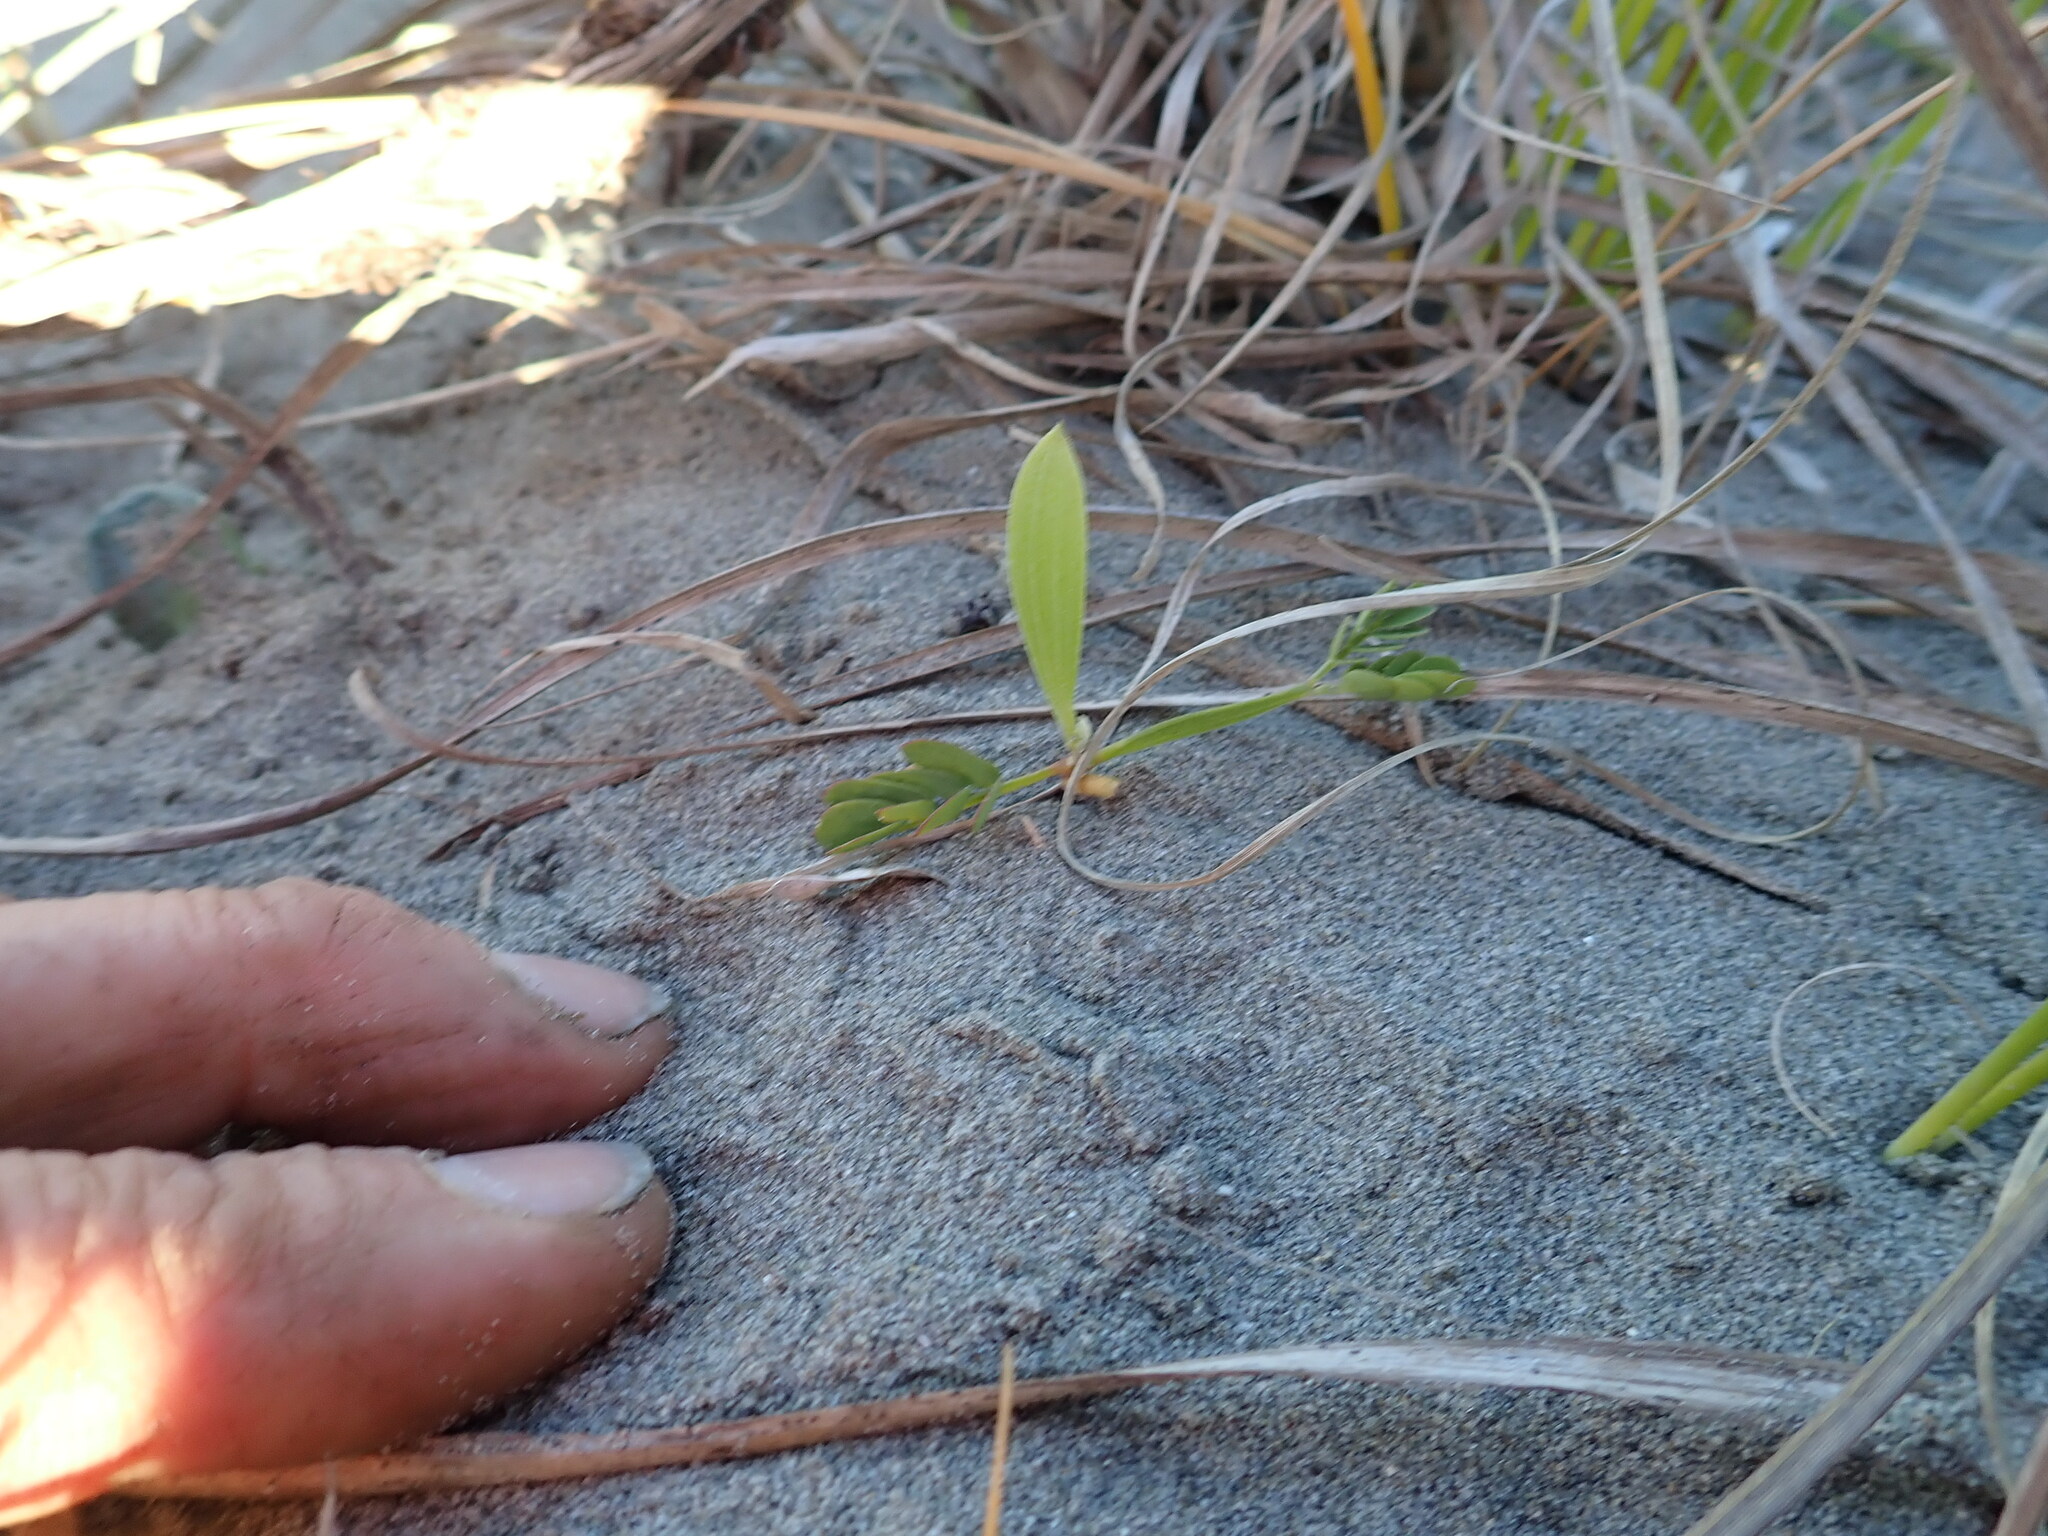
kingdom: Plantae
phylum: Tracheophyta
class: Magnoliopsida
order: Fabales
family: Fabaceae
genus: Acacia
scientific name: Acacia longifolia
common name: Sydney golden wattle
